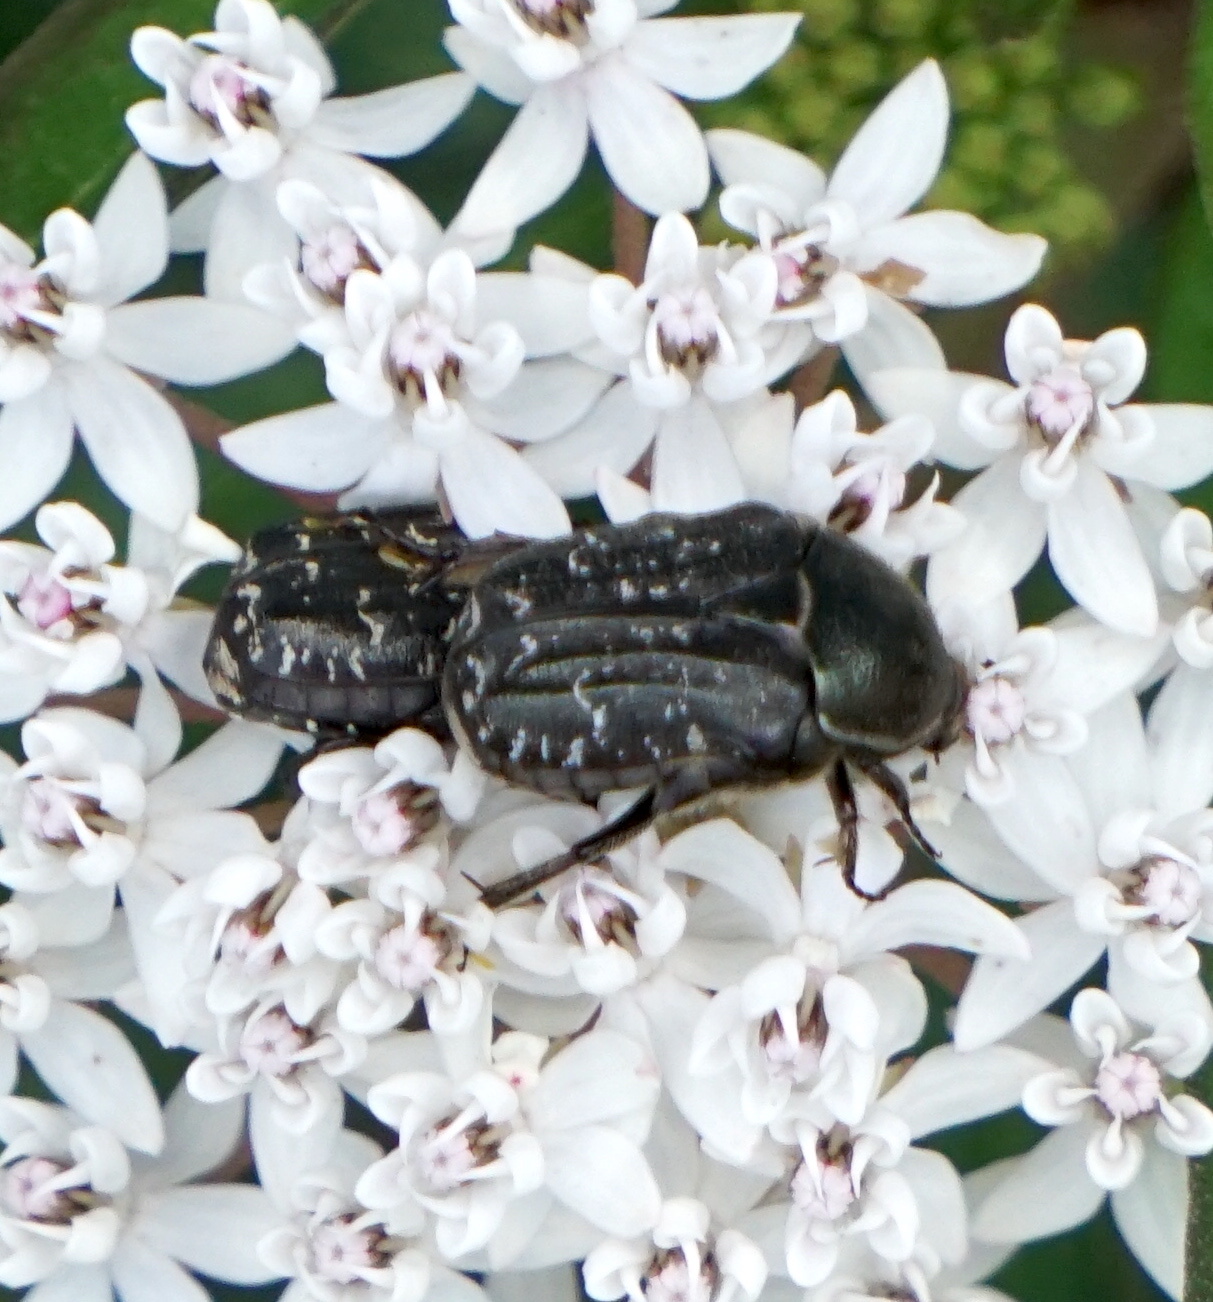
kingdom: Animalia
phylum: Arthropoda
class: Insecta
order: Coleoptera
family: Scarabaeidae
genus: Euphoria
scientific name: Euphoria sepulcralis
